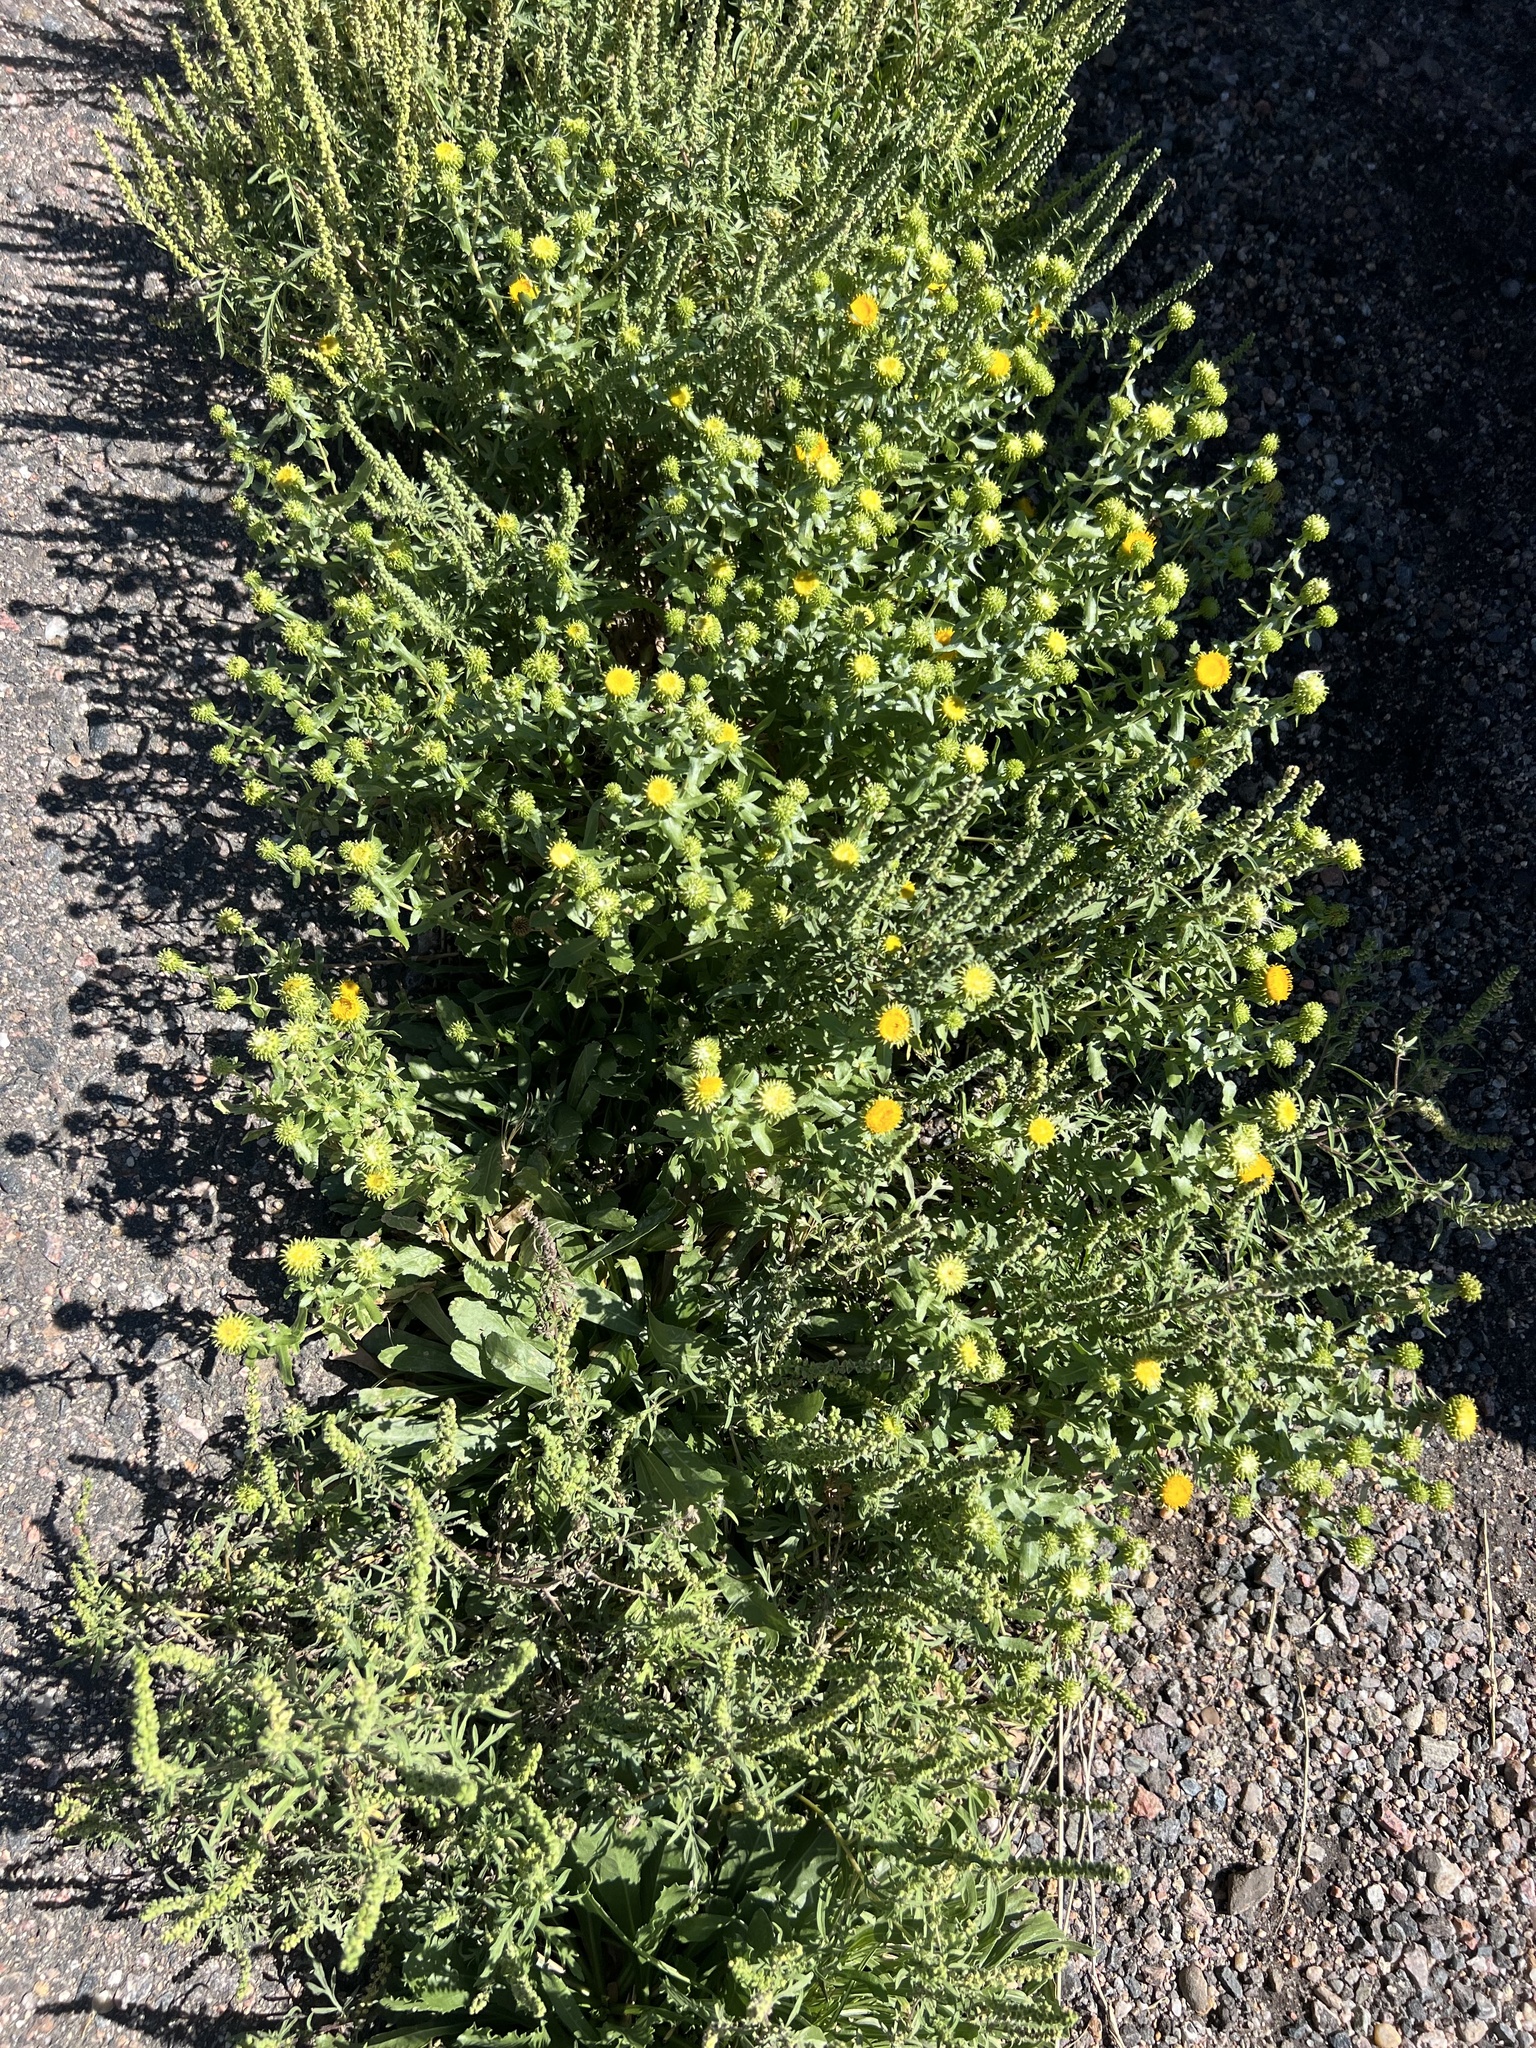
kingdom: Plantae
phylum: Tracheophyta
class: Magnoliopsida
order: Asterales
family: Asteraceae
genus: Grindelia
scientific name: Grindelia hirsutula
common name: Hairy gumweed
